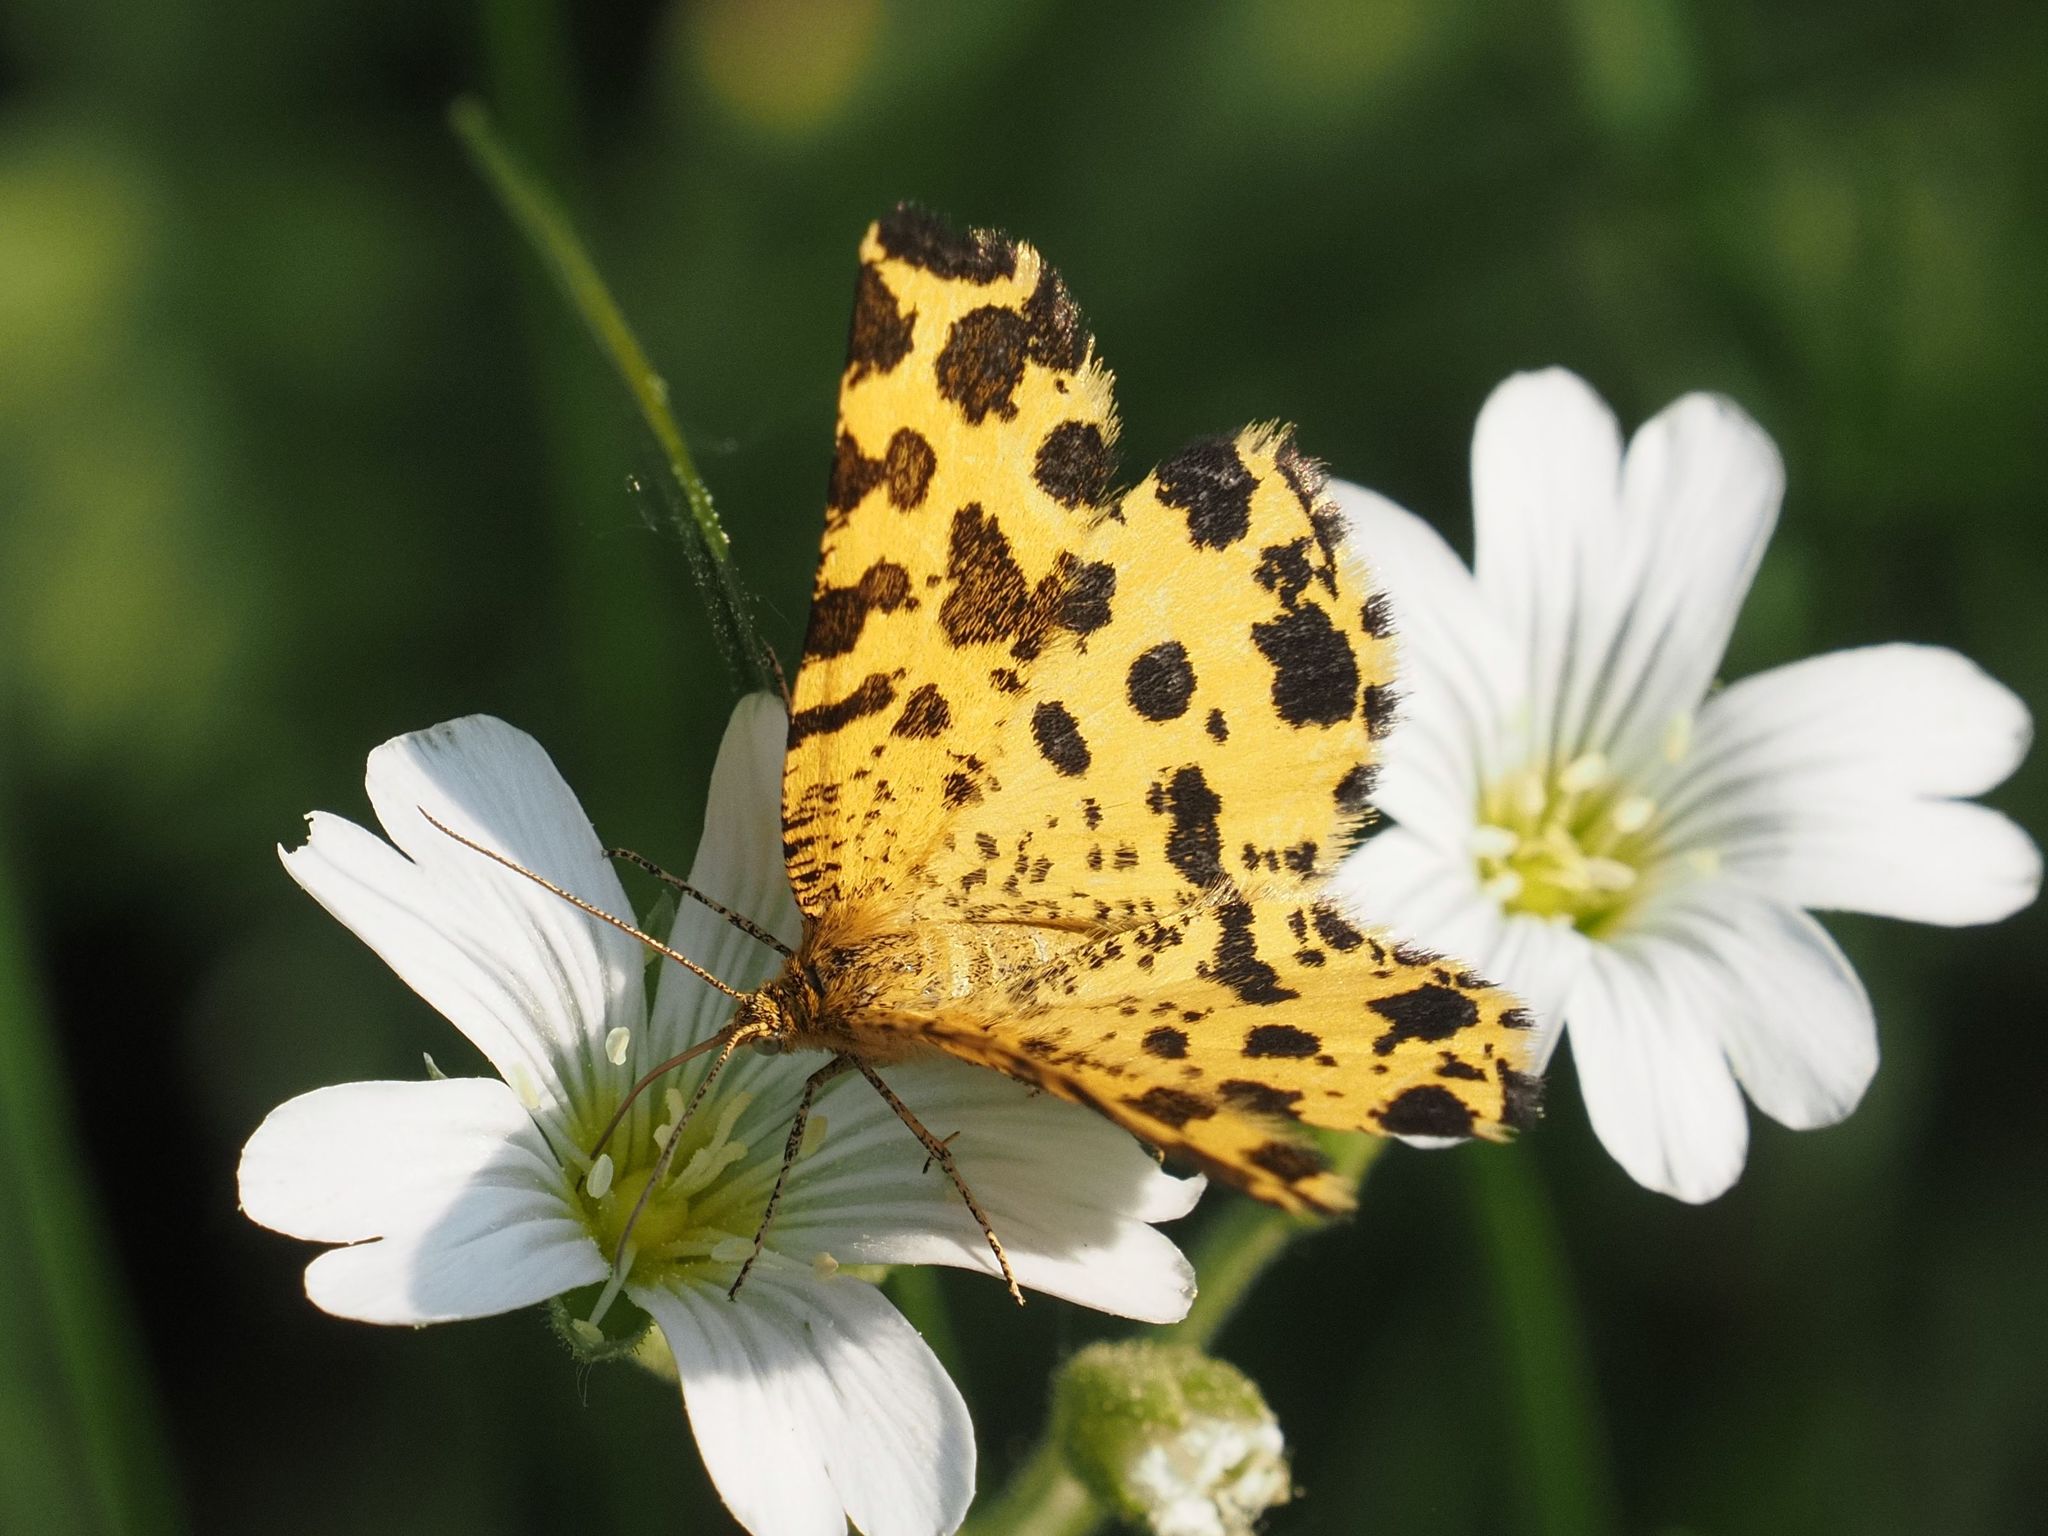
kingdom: Animalia
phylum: Arthropoda
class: Insecta
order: Lepidoptera
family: Geometridae
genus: Pseudopanthera
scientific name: Pseudopanthera macularia
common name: Speckled yellow
